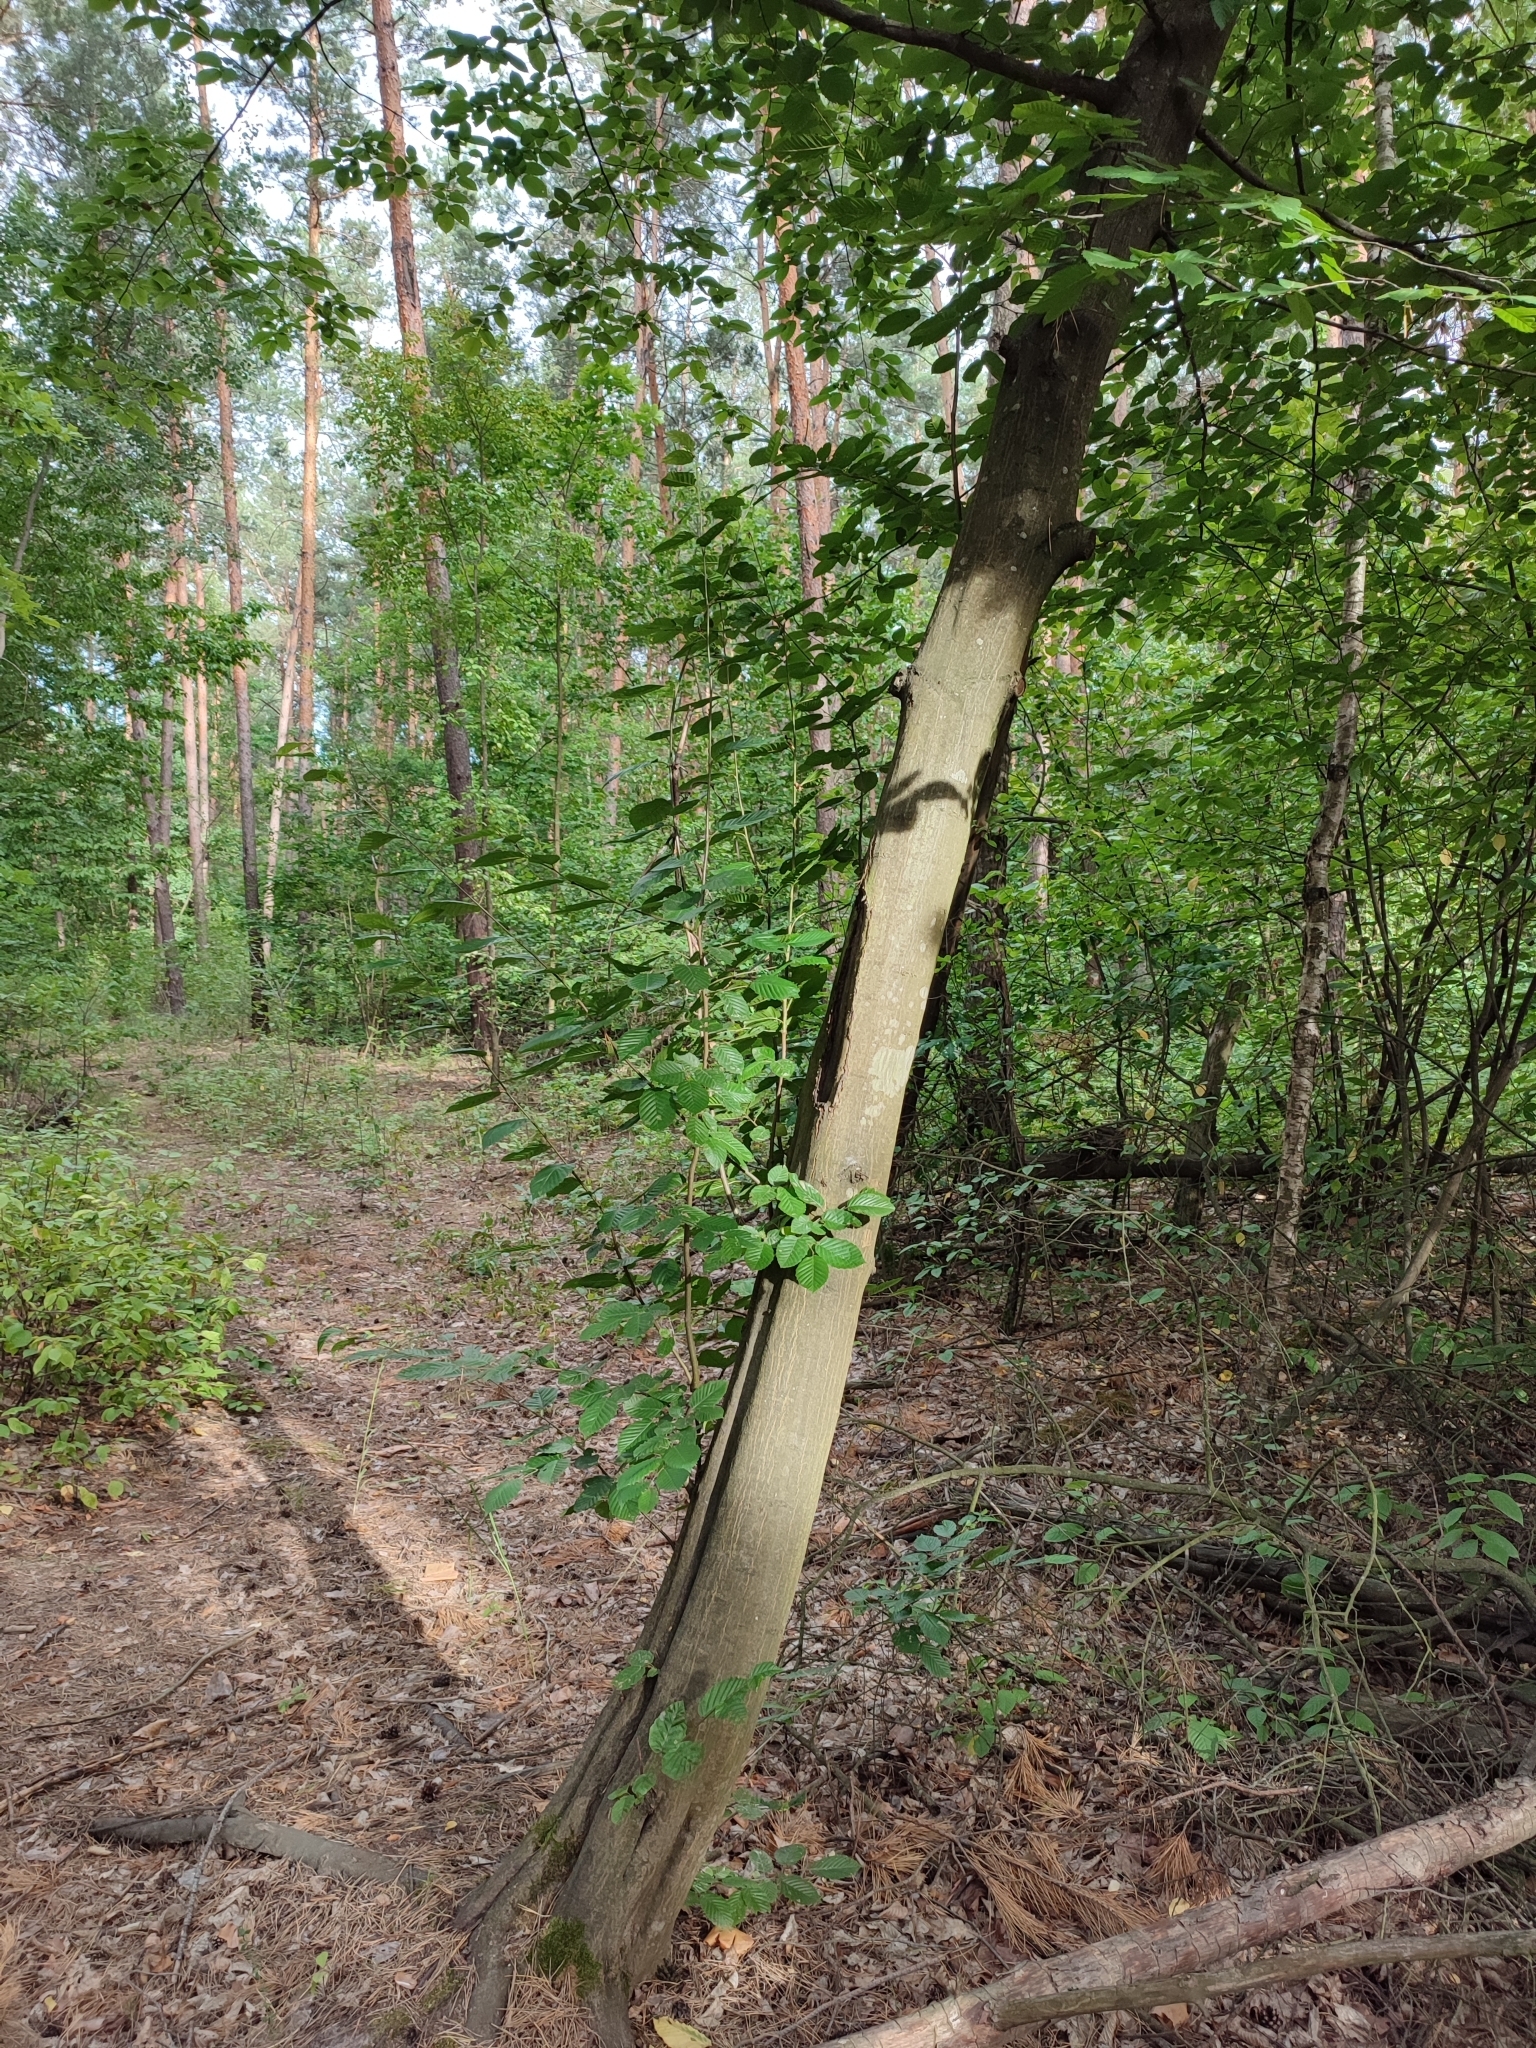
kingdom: Plantae
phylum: Tracheophyta
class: Magnoliopsida
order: Fagales
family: Betulaceae
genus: Carpinus
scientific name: Carpinus betulus
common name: Hornbeam
